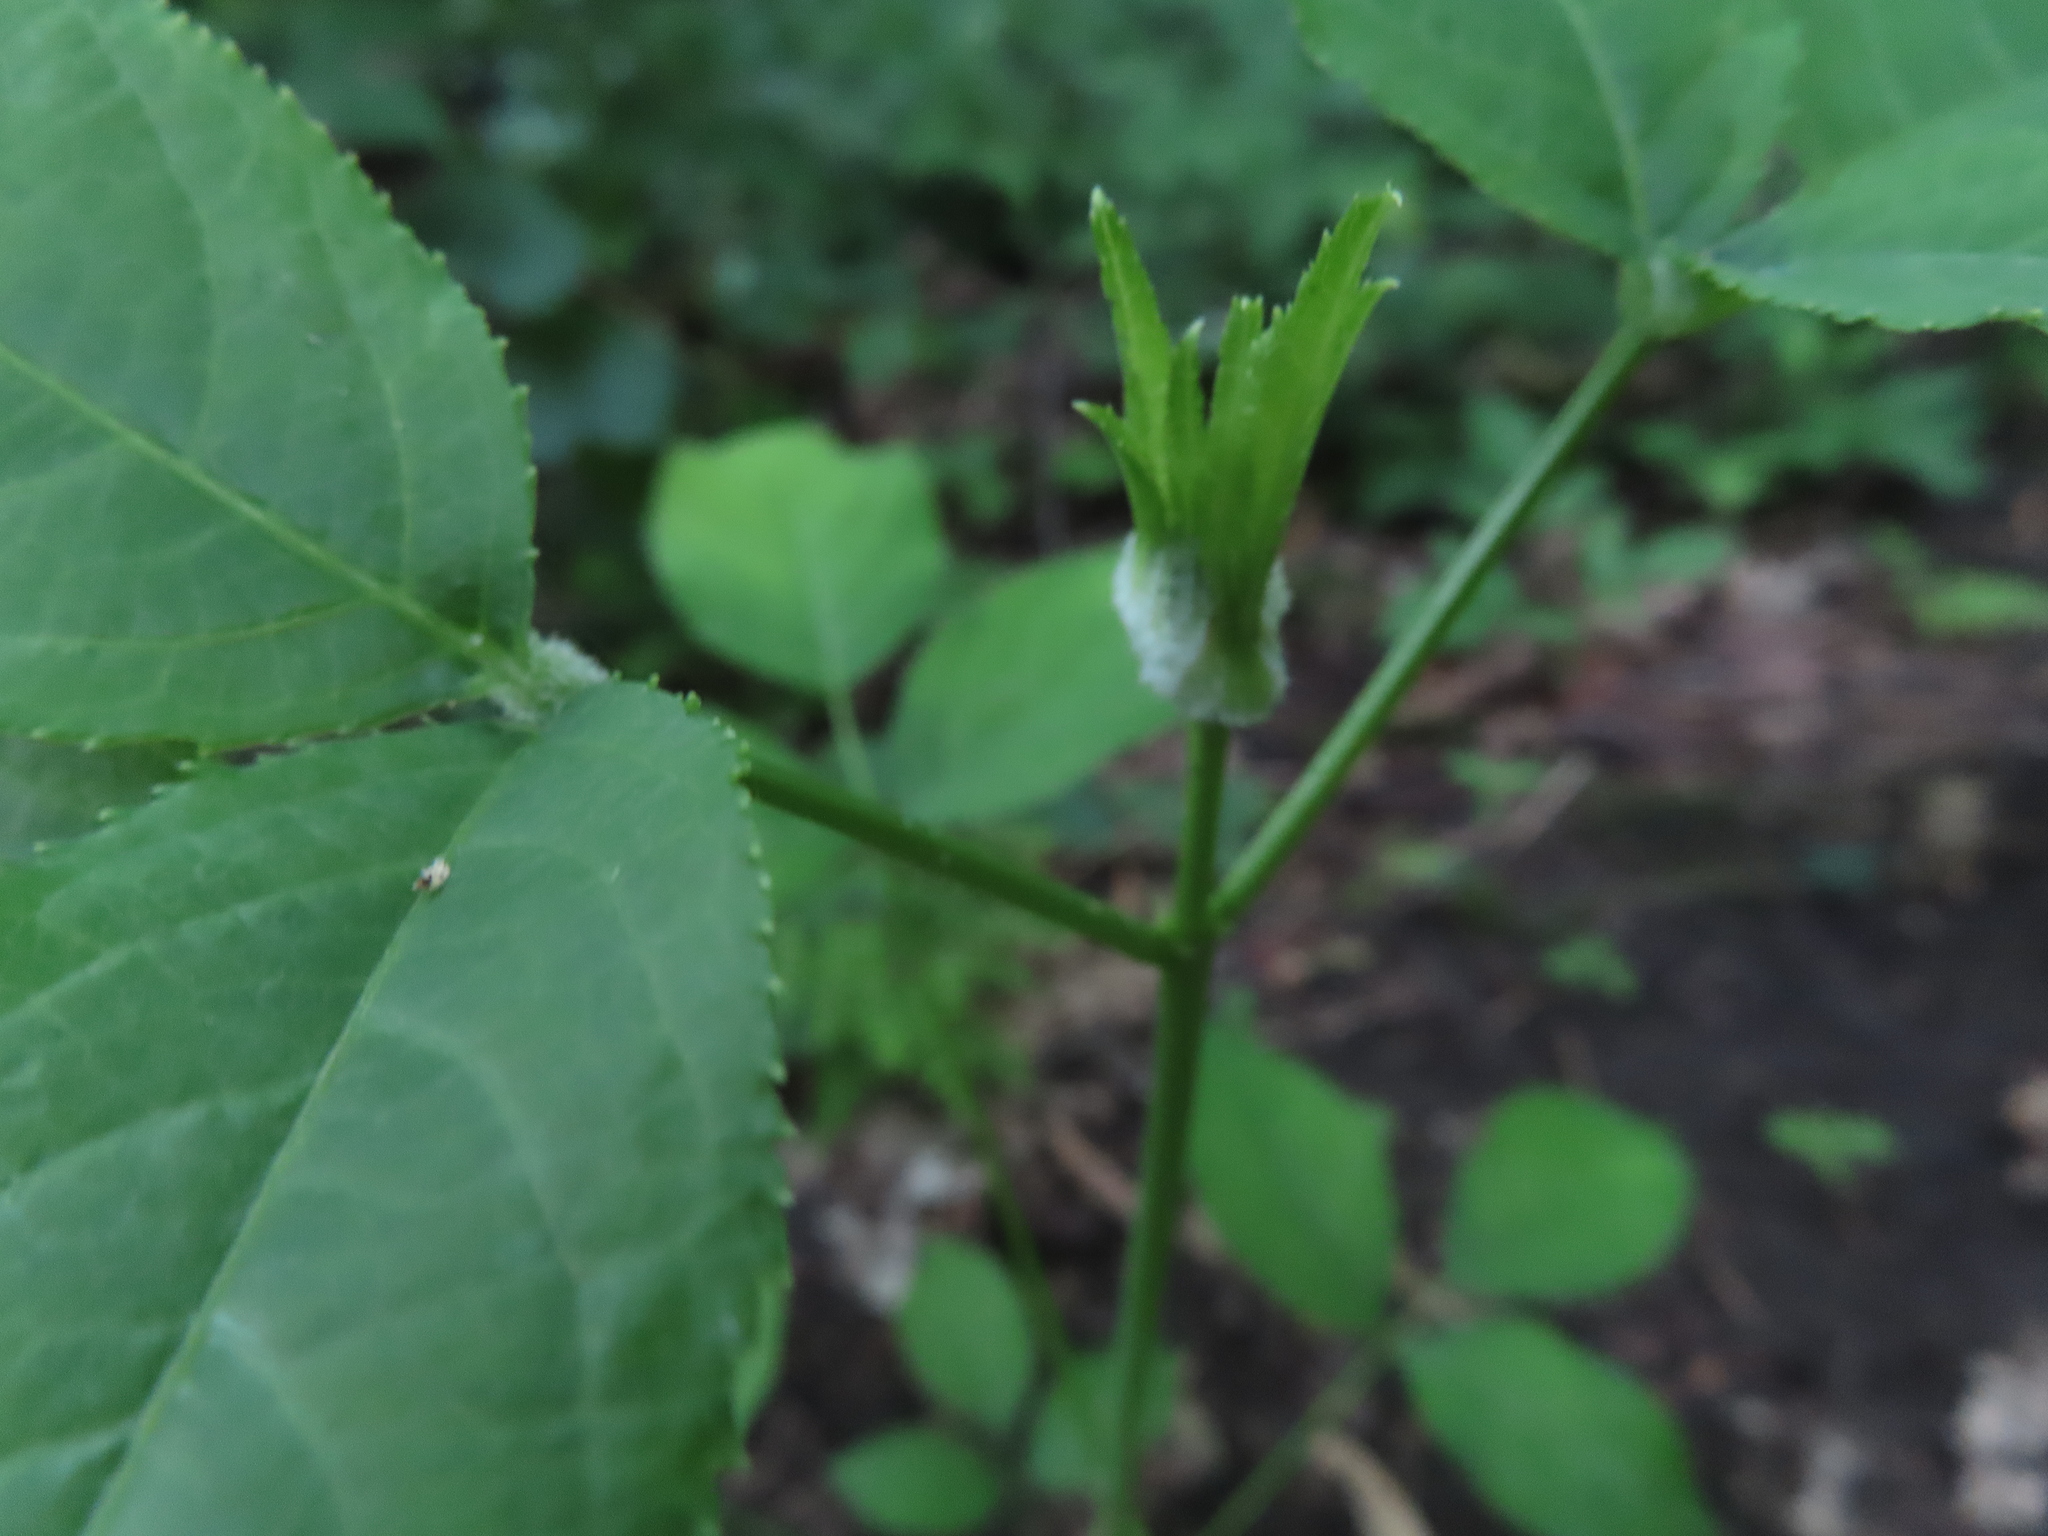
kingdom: Plantae
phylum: Tracheophyta
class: Magnoliopsida
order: Crossosomatales
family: Staphyleaceae
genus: Staphylea
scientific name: Staphylea trifolia
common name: American bladdernut
